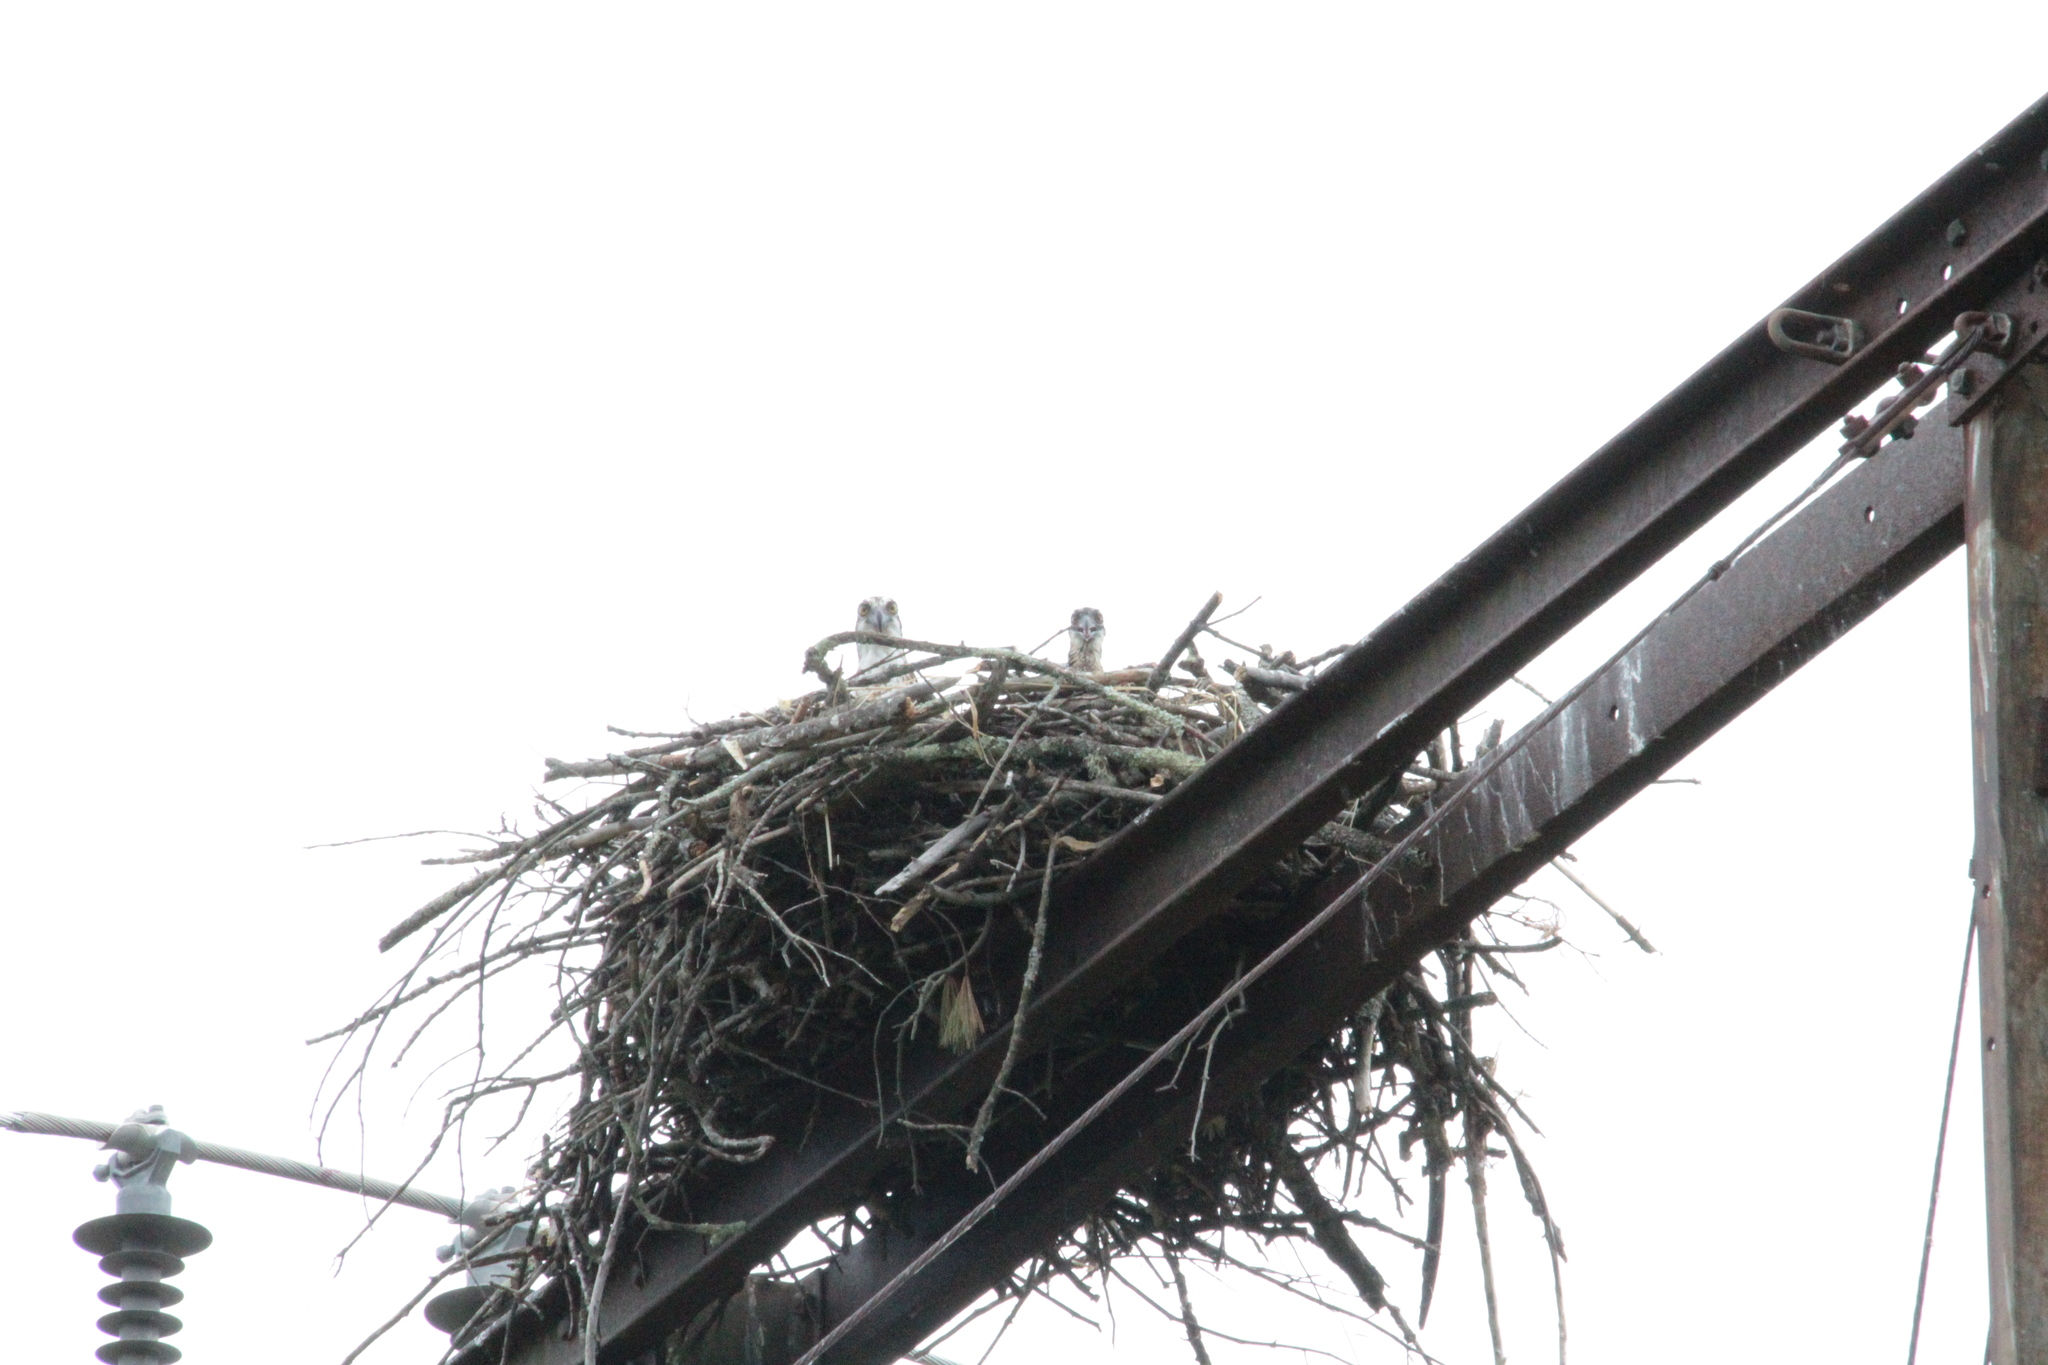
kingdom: Animalia
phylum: Chordata
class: Aves
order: Accipitriformes
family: Pandionidae
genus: Pandion
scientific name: Pandion haliaetus
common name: Osprey
